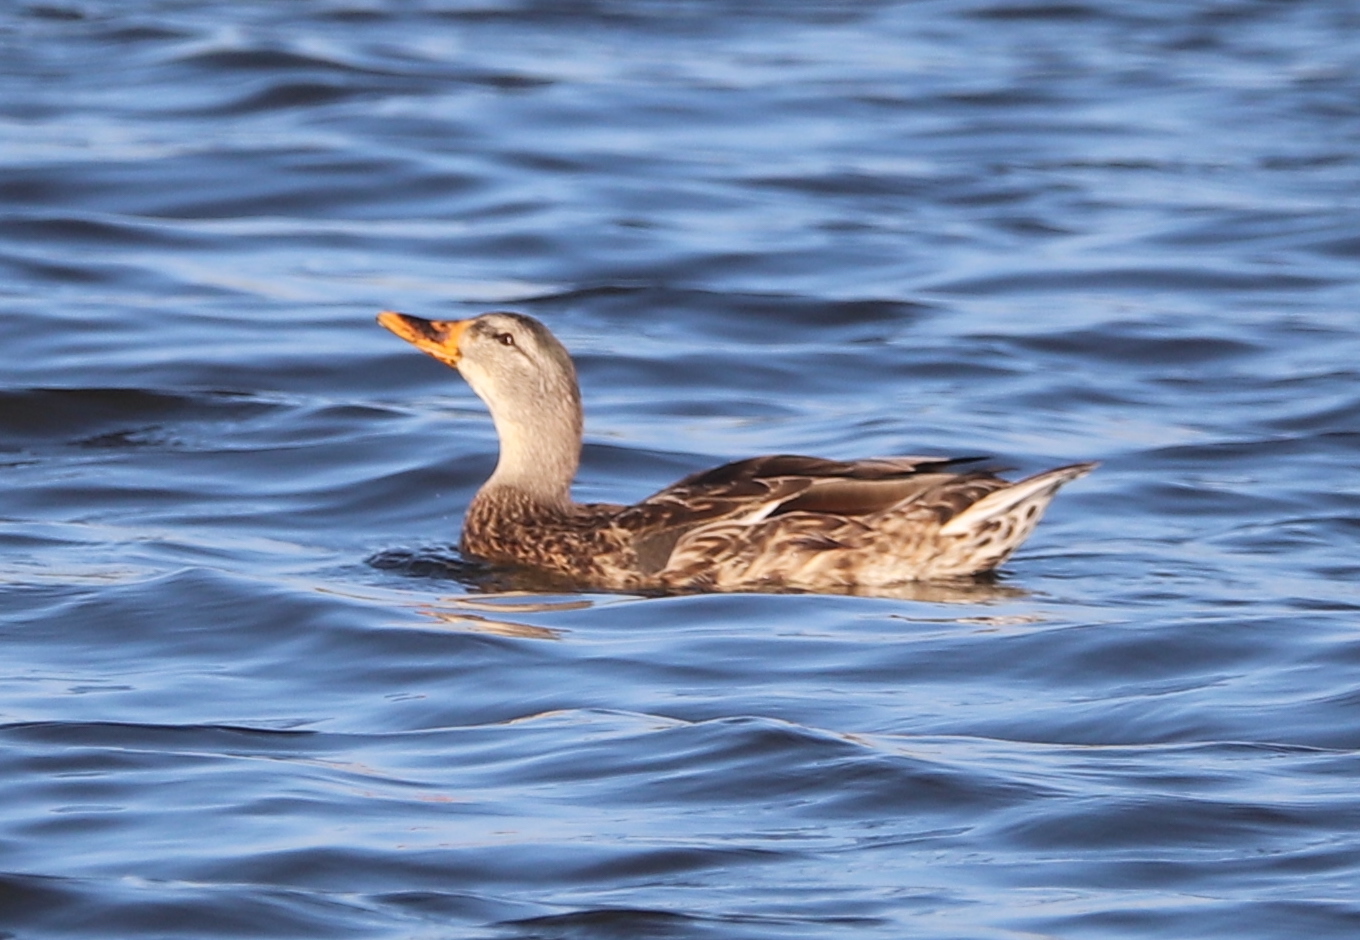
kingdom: Animalia
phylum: Chordata
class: Aves
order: Anseriformes
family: Anatidae
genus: Anas
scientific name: Anas platyrhynchos
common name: Mallard
